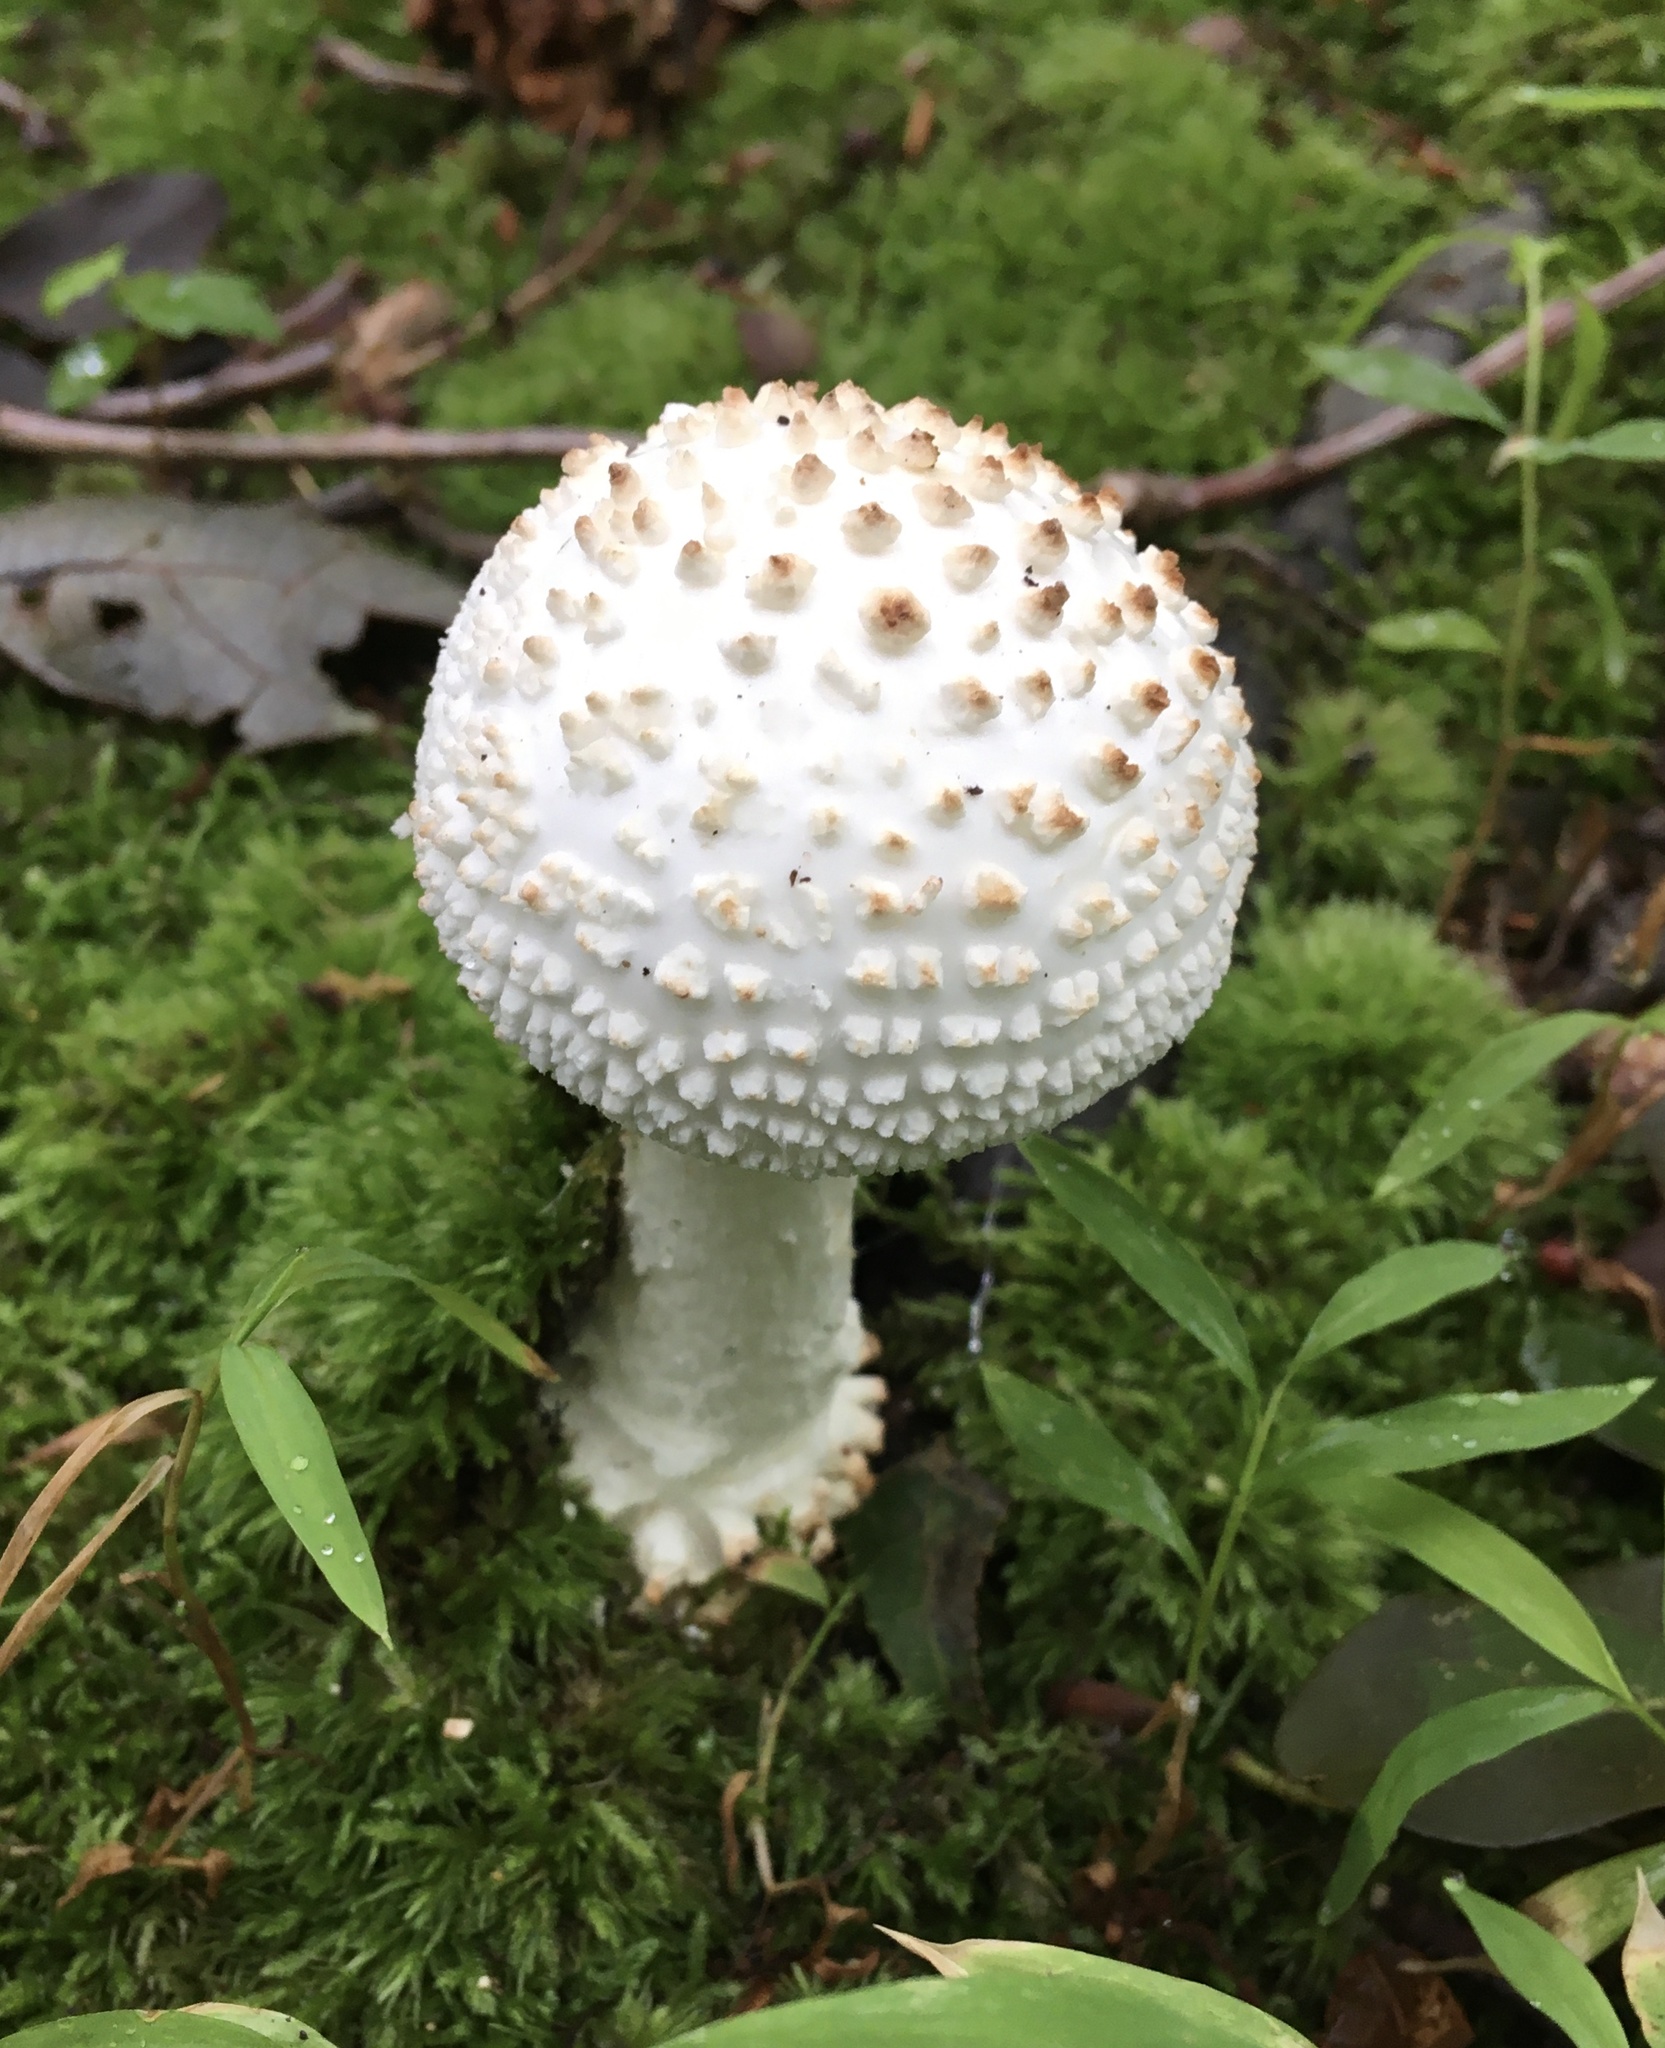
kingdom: Fungi
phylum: Basidiomycota
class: Agaricomycetes
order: Agaricales
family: Amanitaceae
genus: Amanita
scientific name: Amanita cokeri
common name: Coker's amanita
